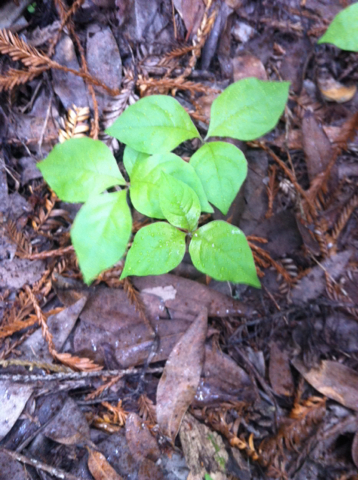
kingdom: Plantae
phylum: Tracheophyta
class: Magnoliopsida
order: Ericales
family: Primulaceae
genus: Lysimachia
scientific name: Lysimachia latifolia
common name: Pacific starflower
